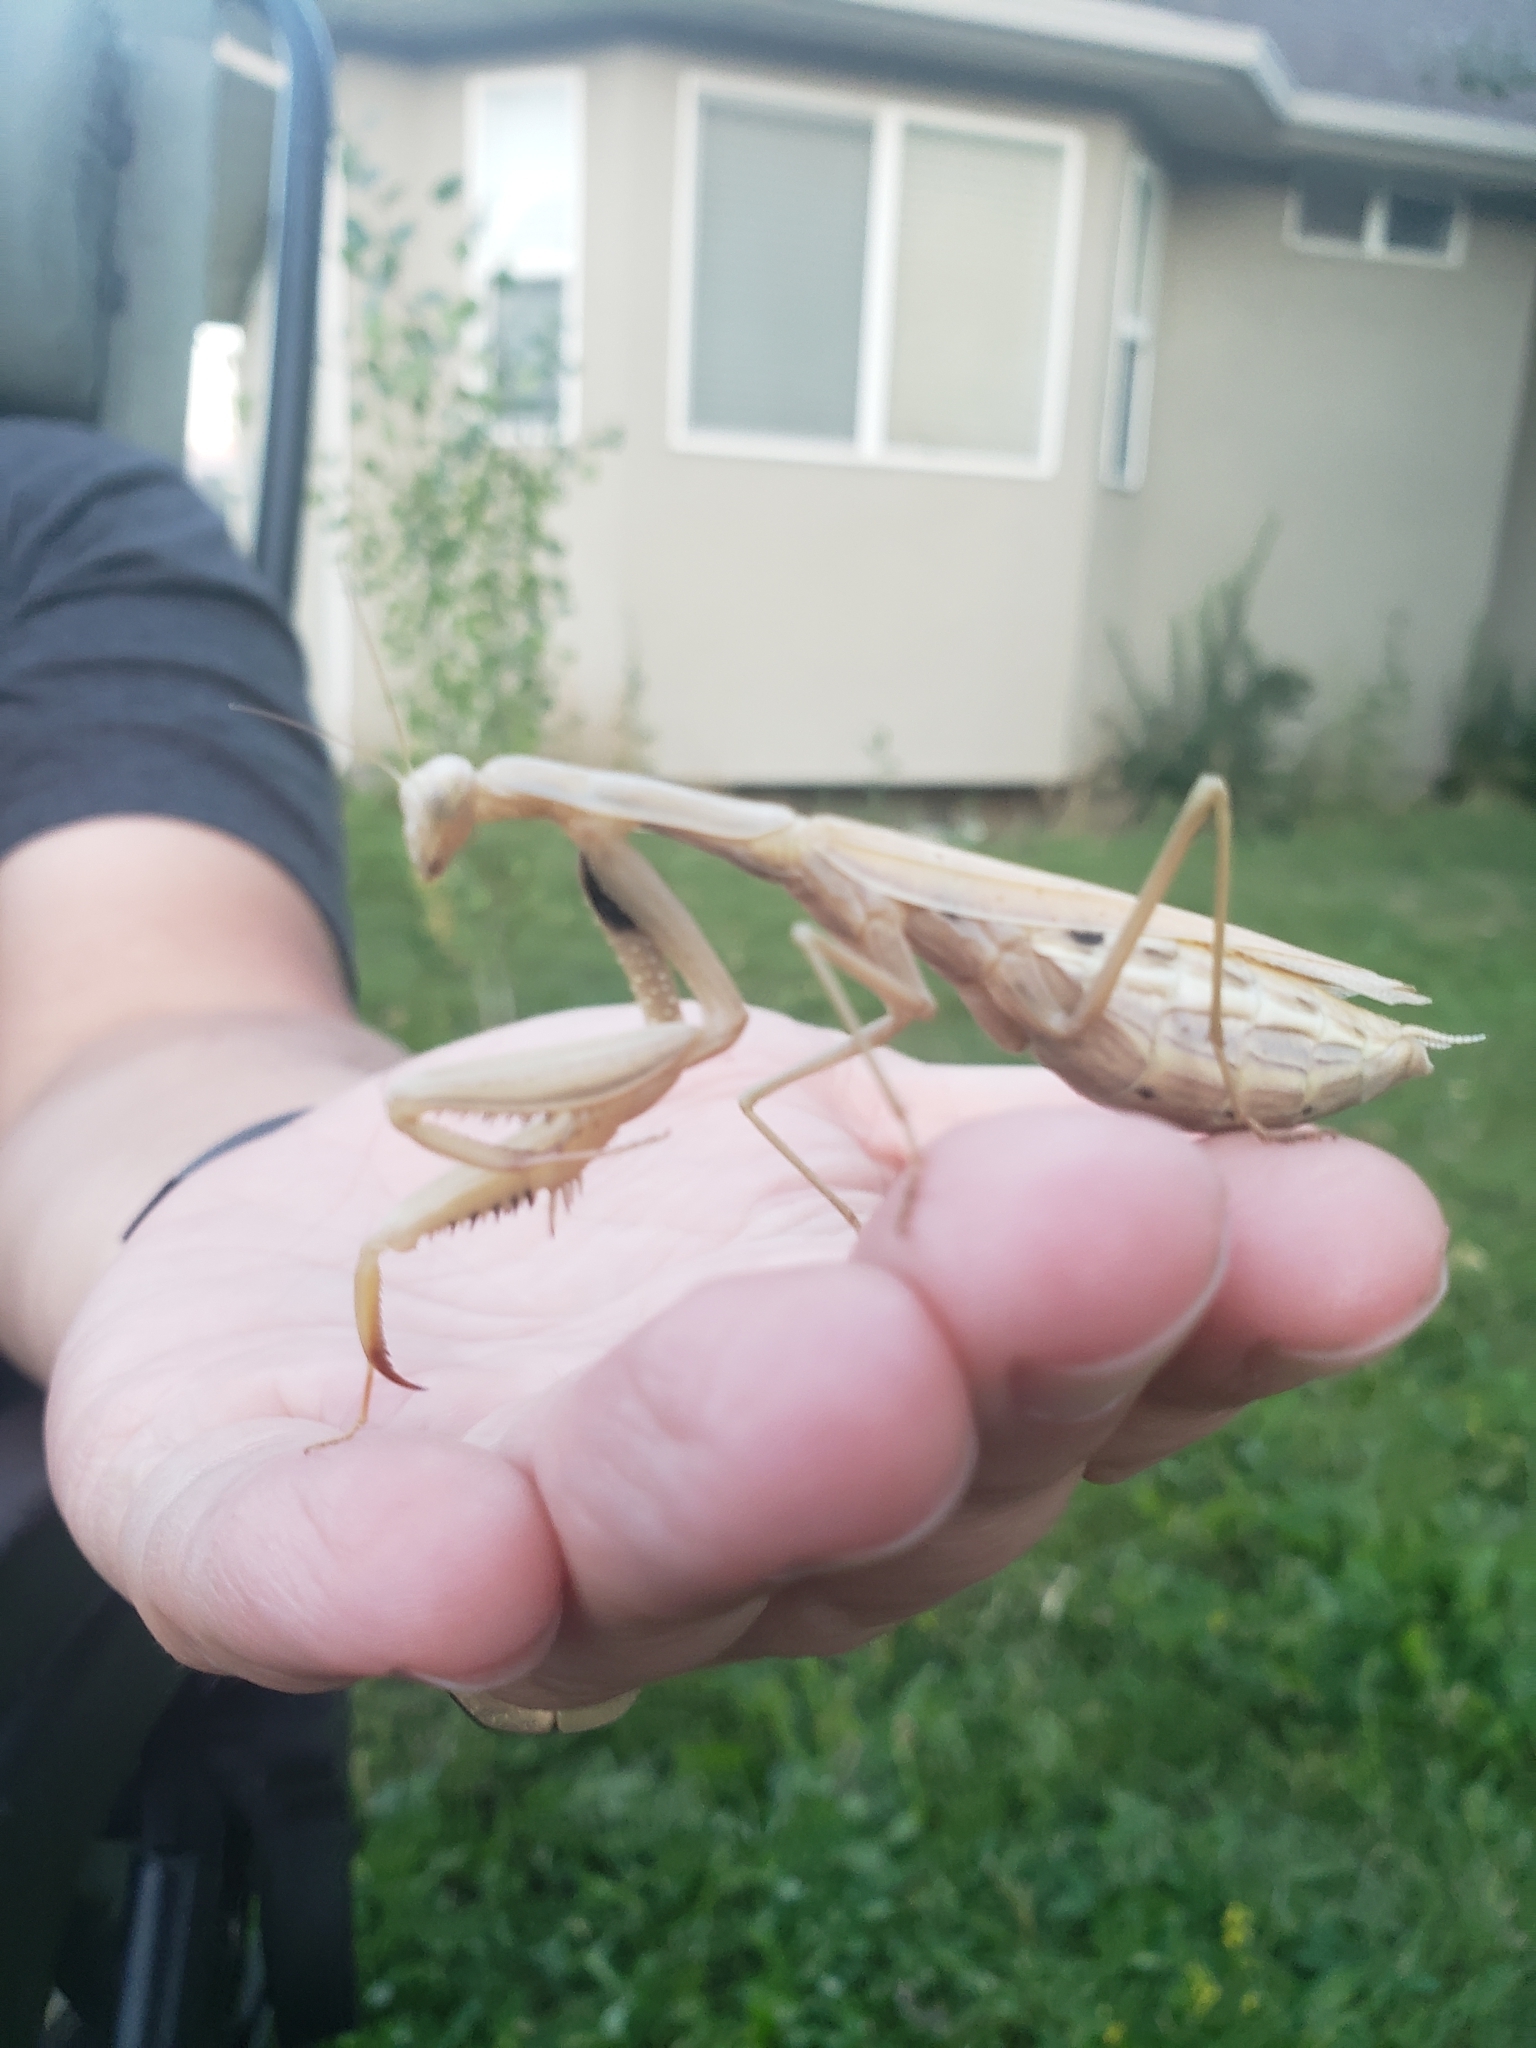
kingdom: Animalia
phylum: Arthropoda
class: Insecta
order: Mantodea
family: Mantidae
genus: Mantis
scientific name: Mantis religiosa
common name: Praying mantis
